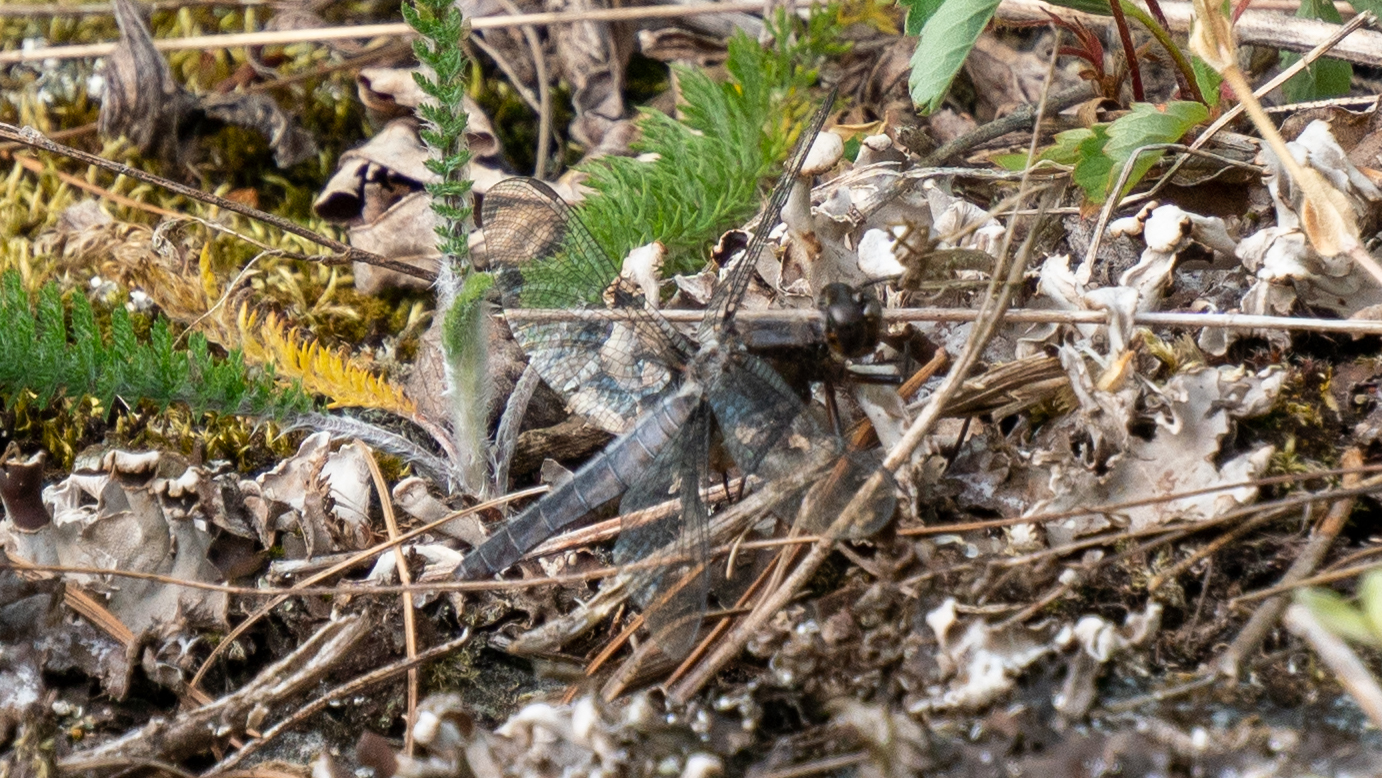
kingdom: Animalia
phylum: Arthropoda
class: Insecta
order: Odonata
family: Libellulidae
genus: Ladona
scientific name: Ladona julia
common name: Chalk-fronted corporal
